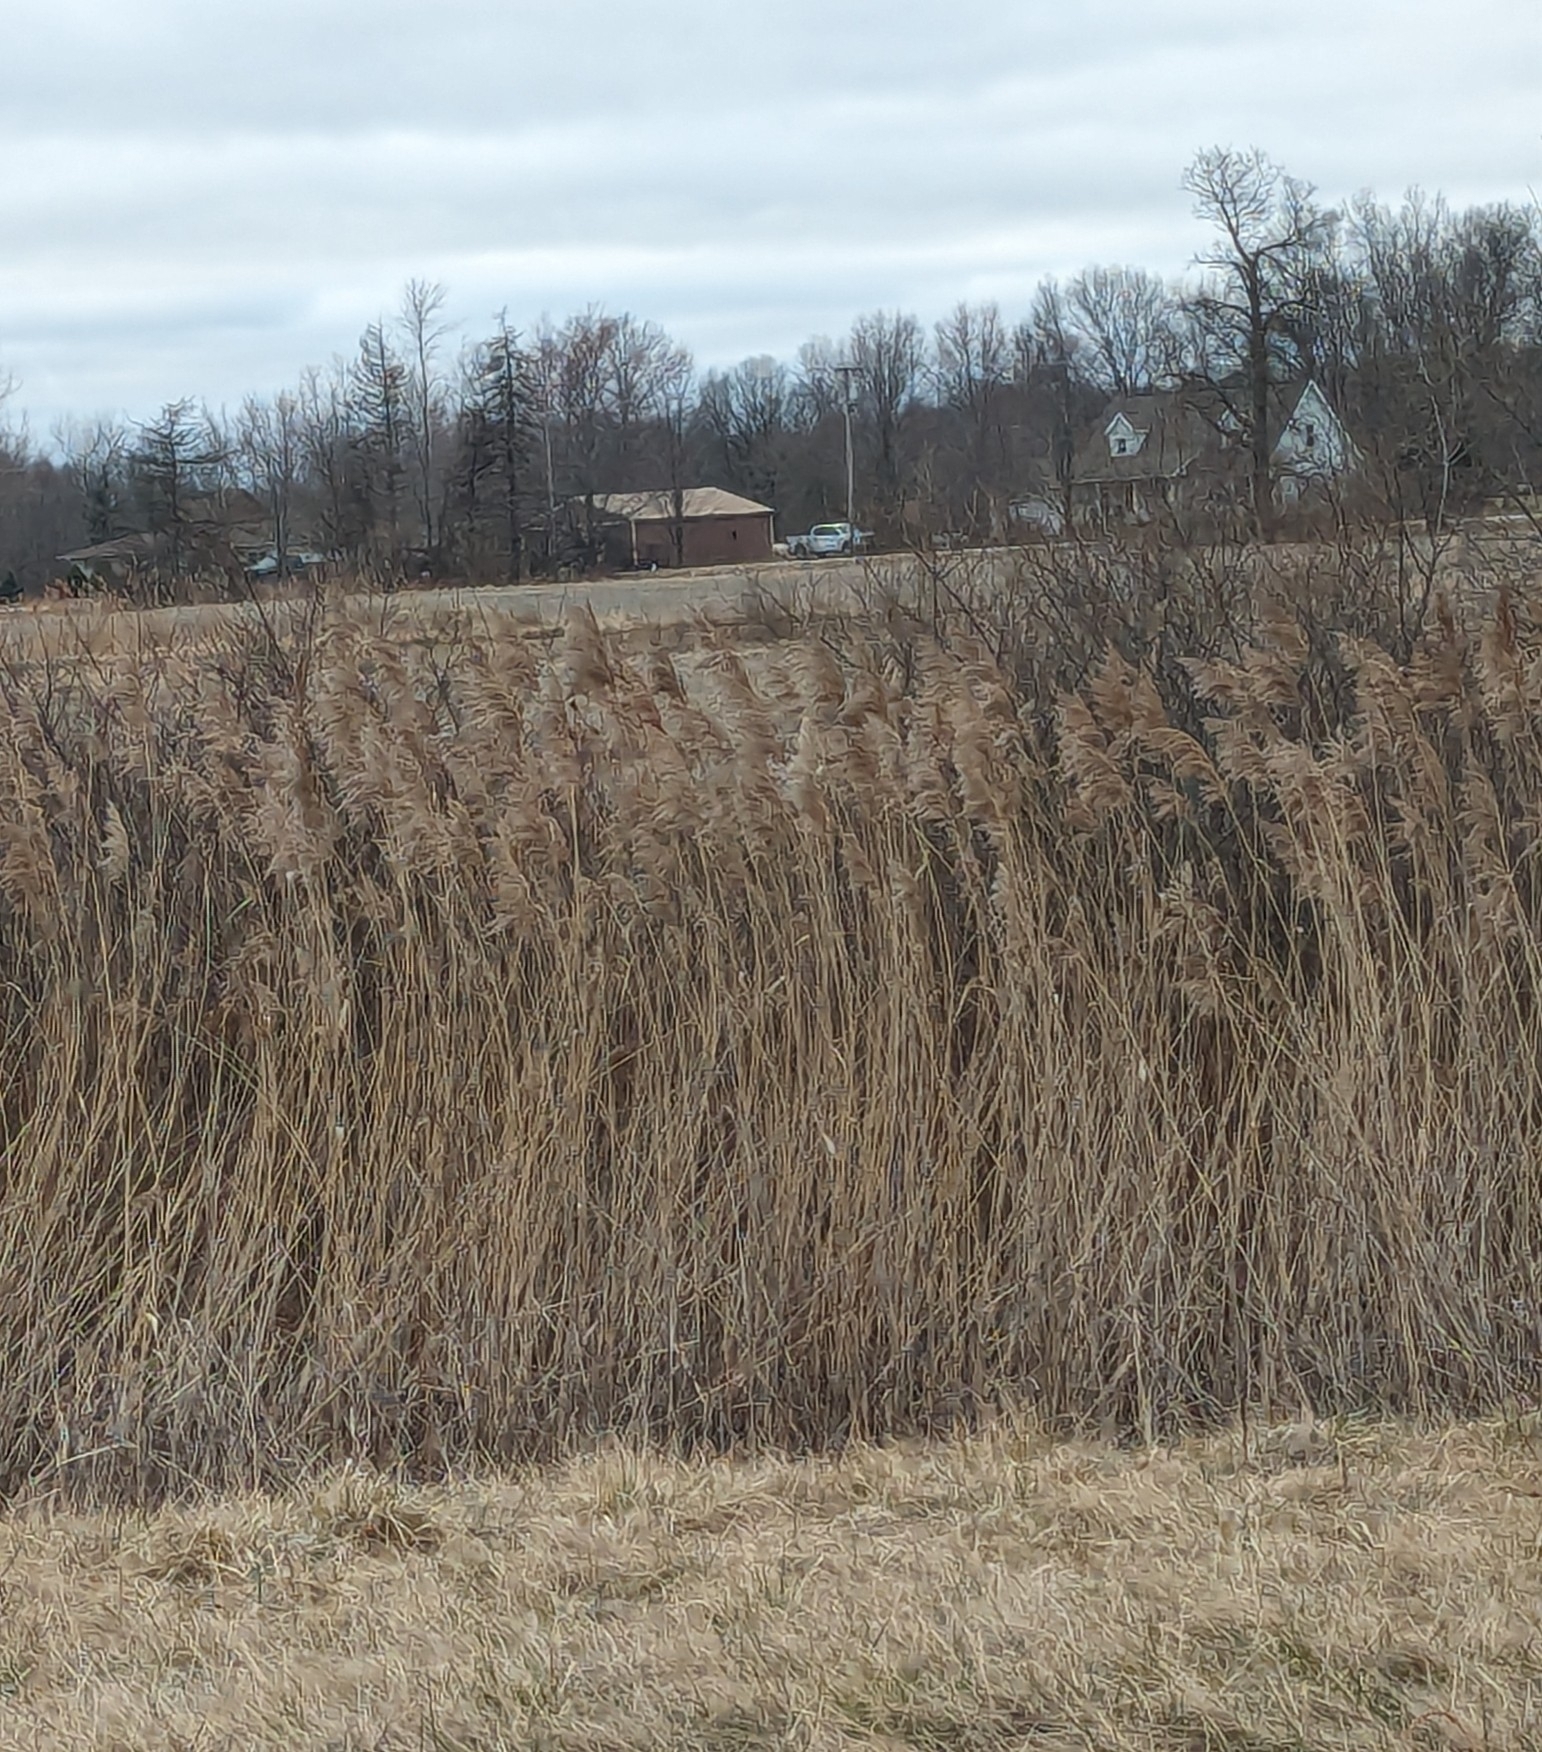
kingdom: Plantae
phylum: Tracheophyta
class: Liliopsida
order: Poales
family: Poaceae
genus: Phragmites
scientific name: Phragmites australis
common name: Common reed
